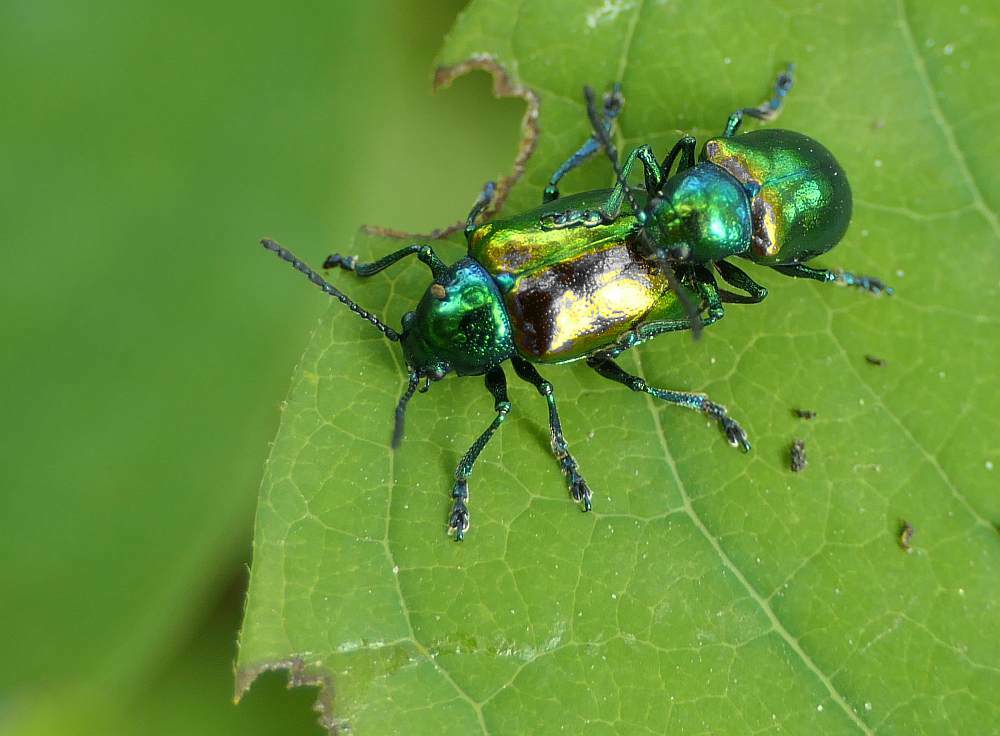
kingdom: Animalia
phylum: Arthropoda
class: Insecta
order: Coleoptera
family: Chrysomelidae
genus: Chrysochus
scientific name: Chrysochus auratus
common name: Dogbane leaf beetle
